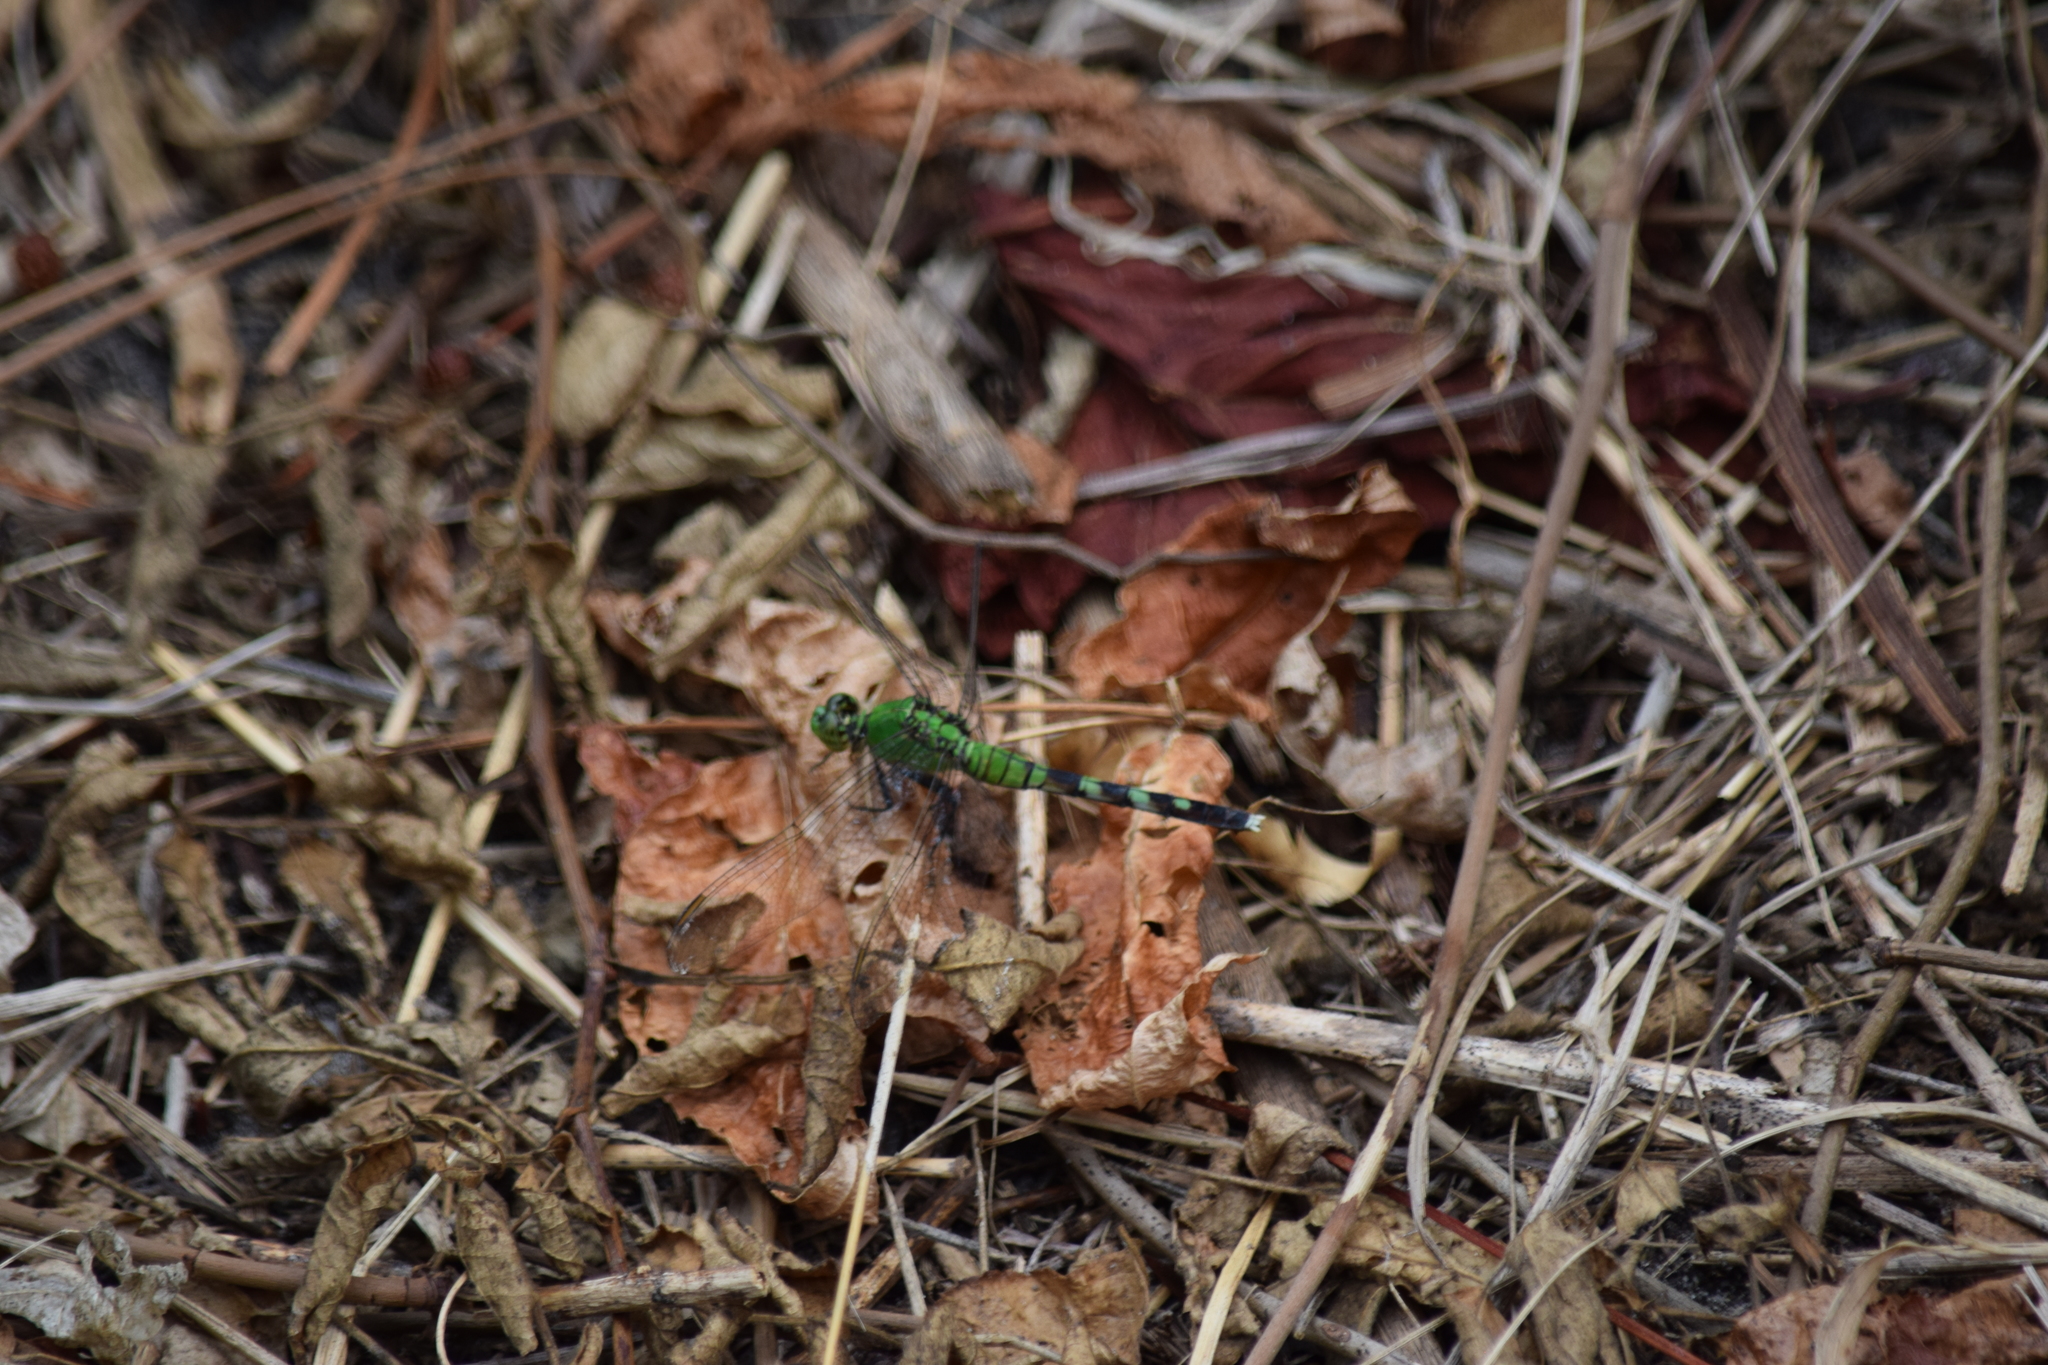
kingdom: Animalia
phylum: Arthropoda
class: Insecta
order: Odonata
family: Libellulidae
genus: Erythemis
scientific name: Erythemis simplicicollis
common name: Eastern pondhawk
